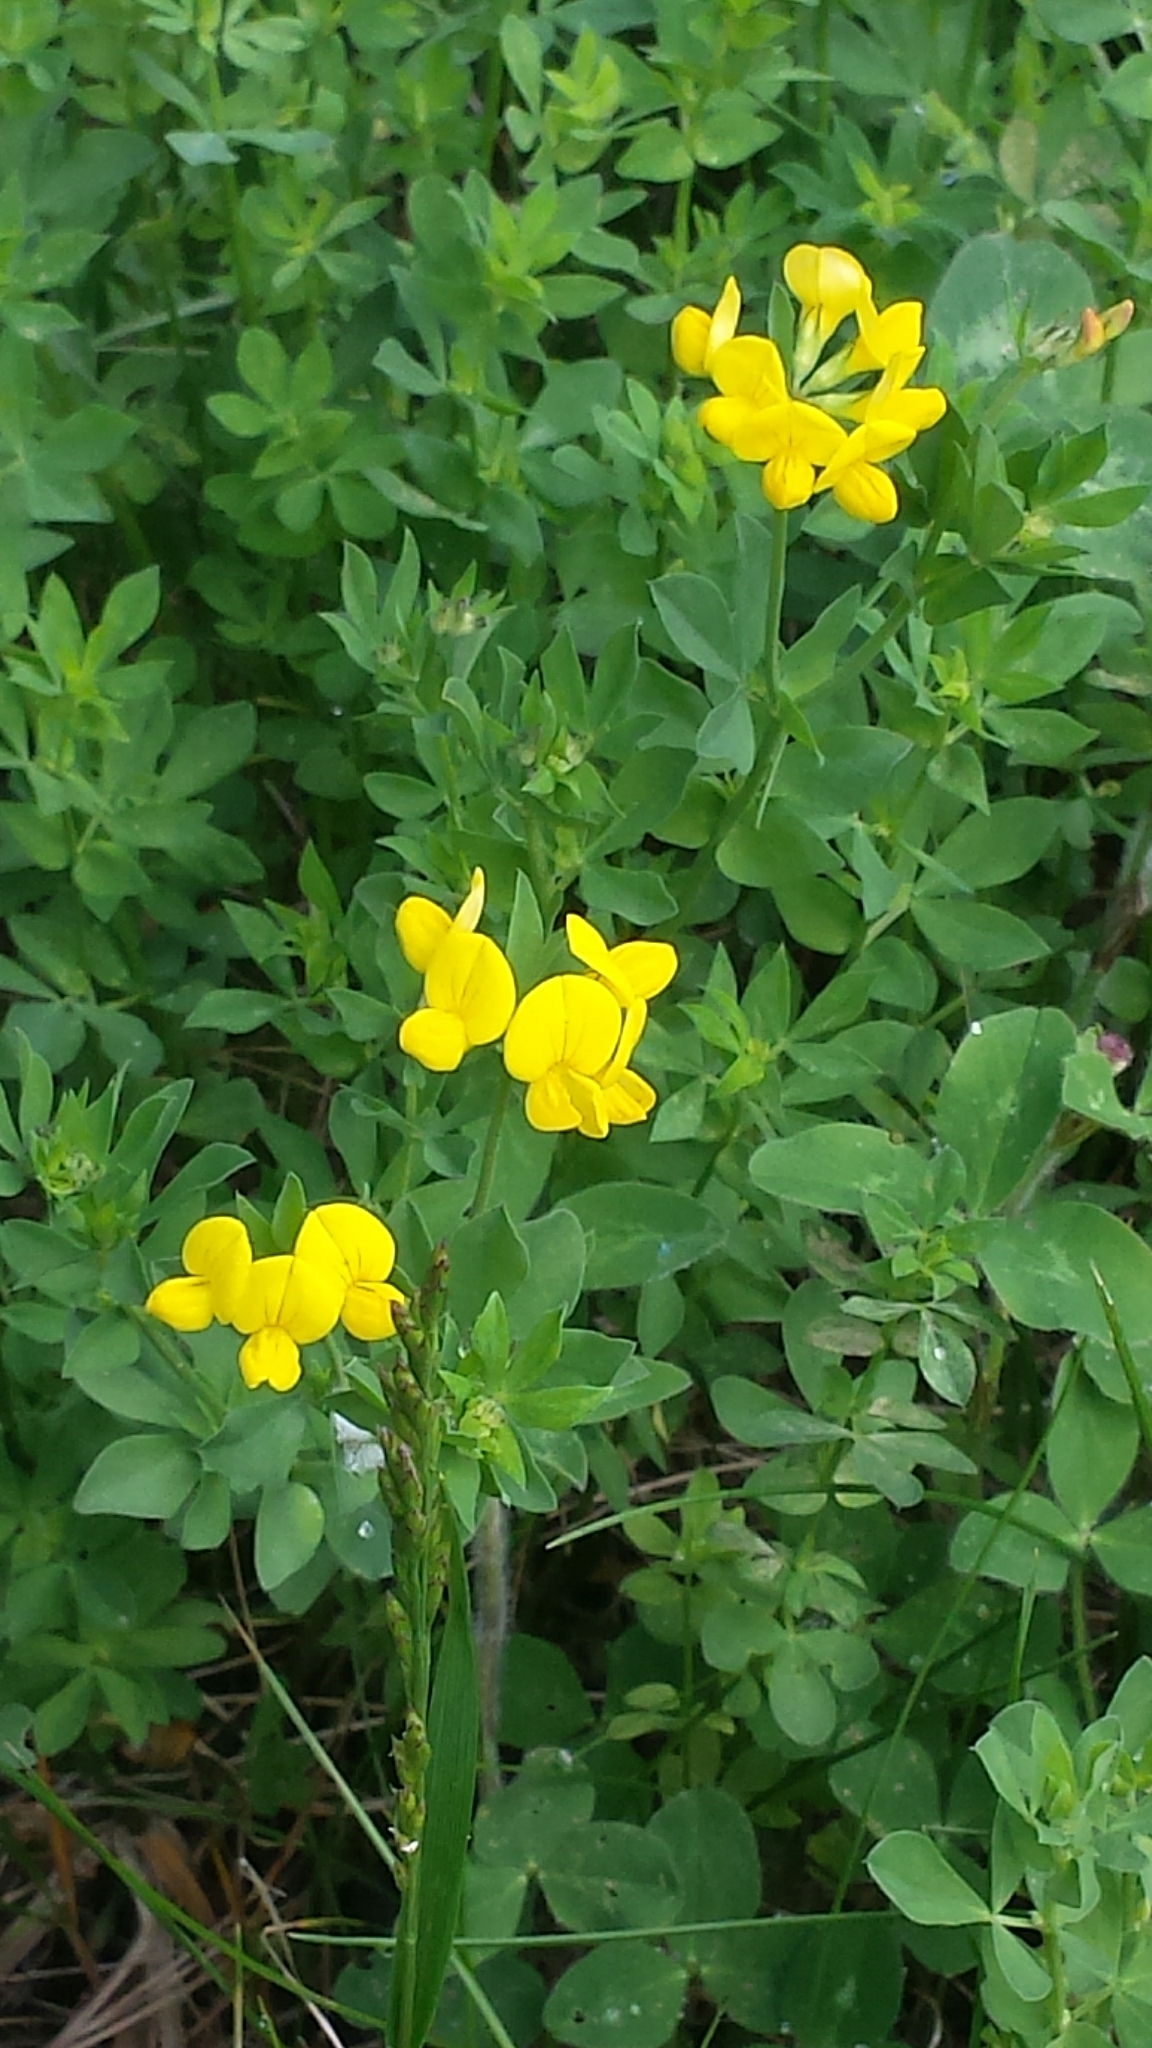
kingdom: Plantae
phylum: Tracheophyta
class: Magnoliopsida
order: Fabales
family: Fabaceae
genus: Lotus
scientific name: Lotus corniculatus
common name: Common bird's-foot-trefoil
